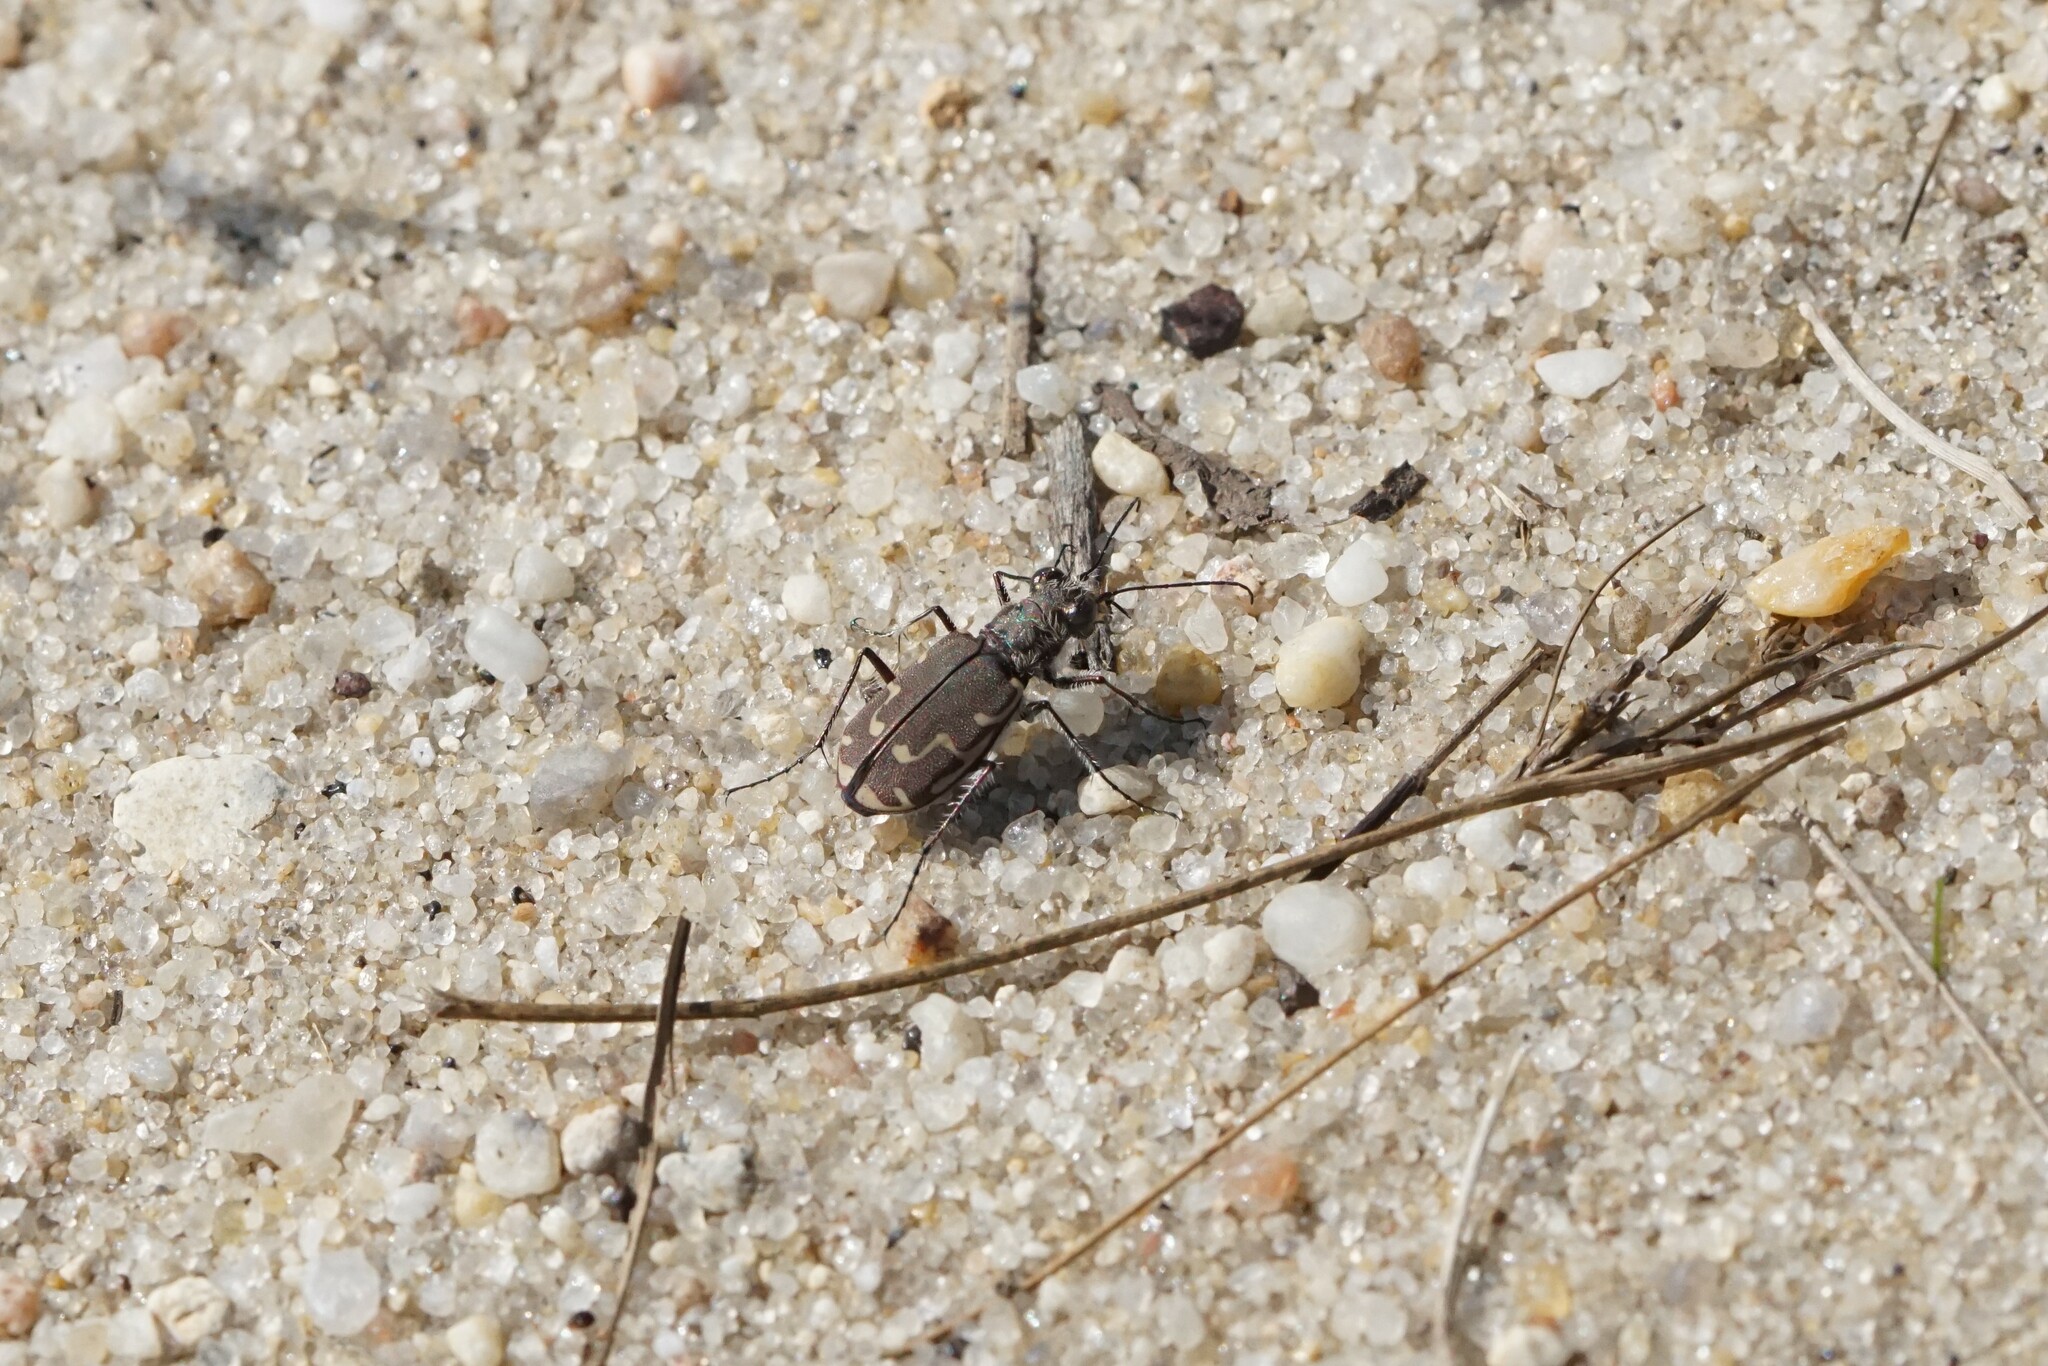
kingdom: Animalia
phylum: Arthropoda
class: Insecta
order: Coleoptera
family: Carabidae
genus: Cicindela
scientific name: Cicindela repanda
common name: Bronzed tiger beetle
